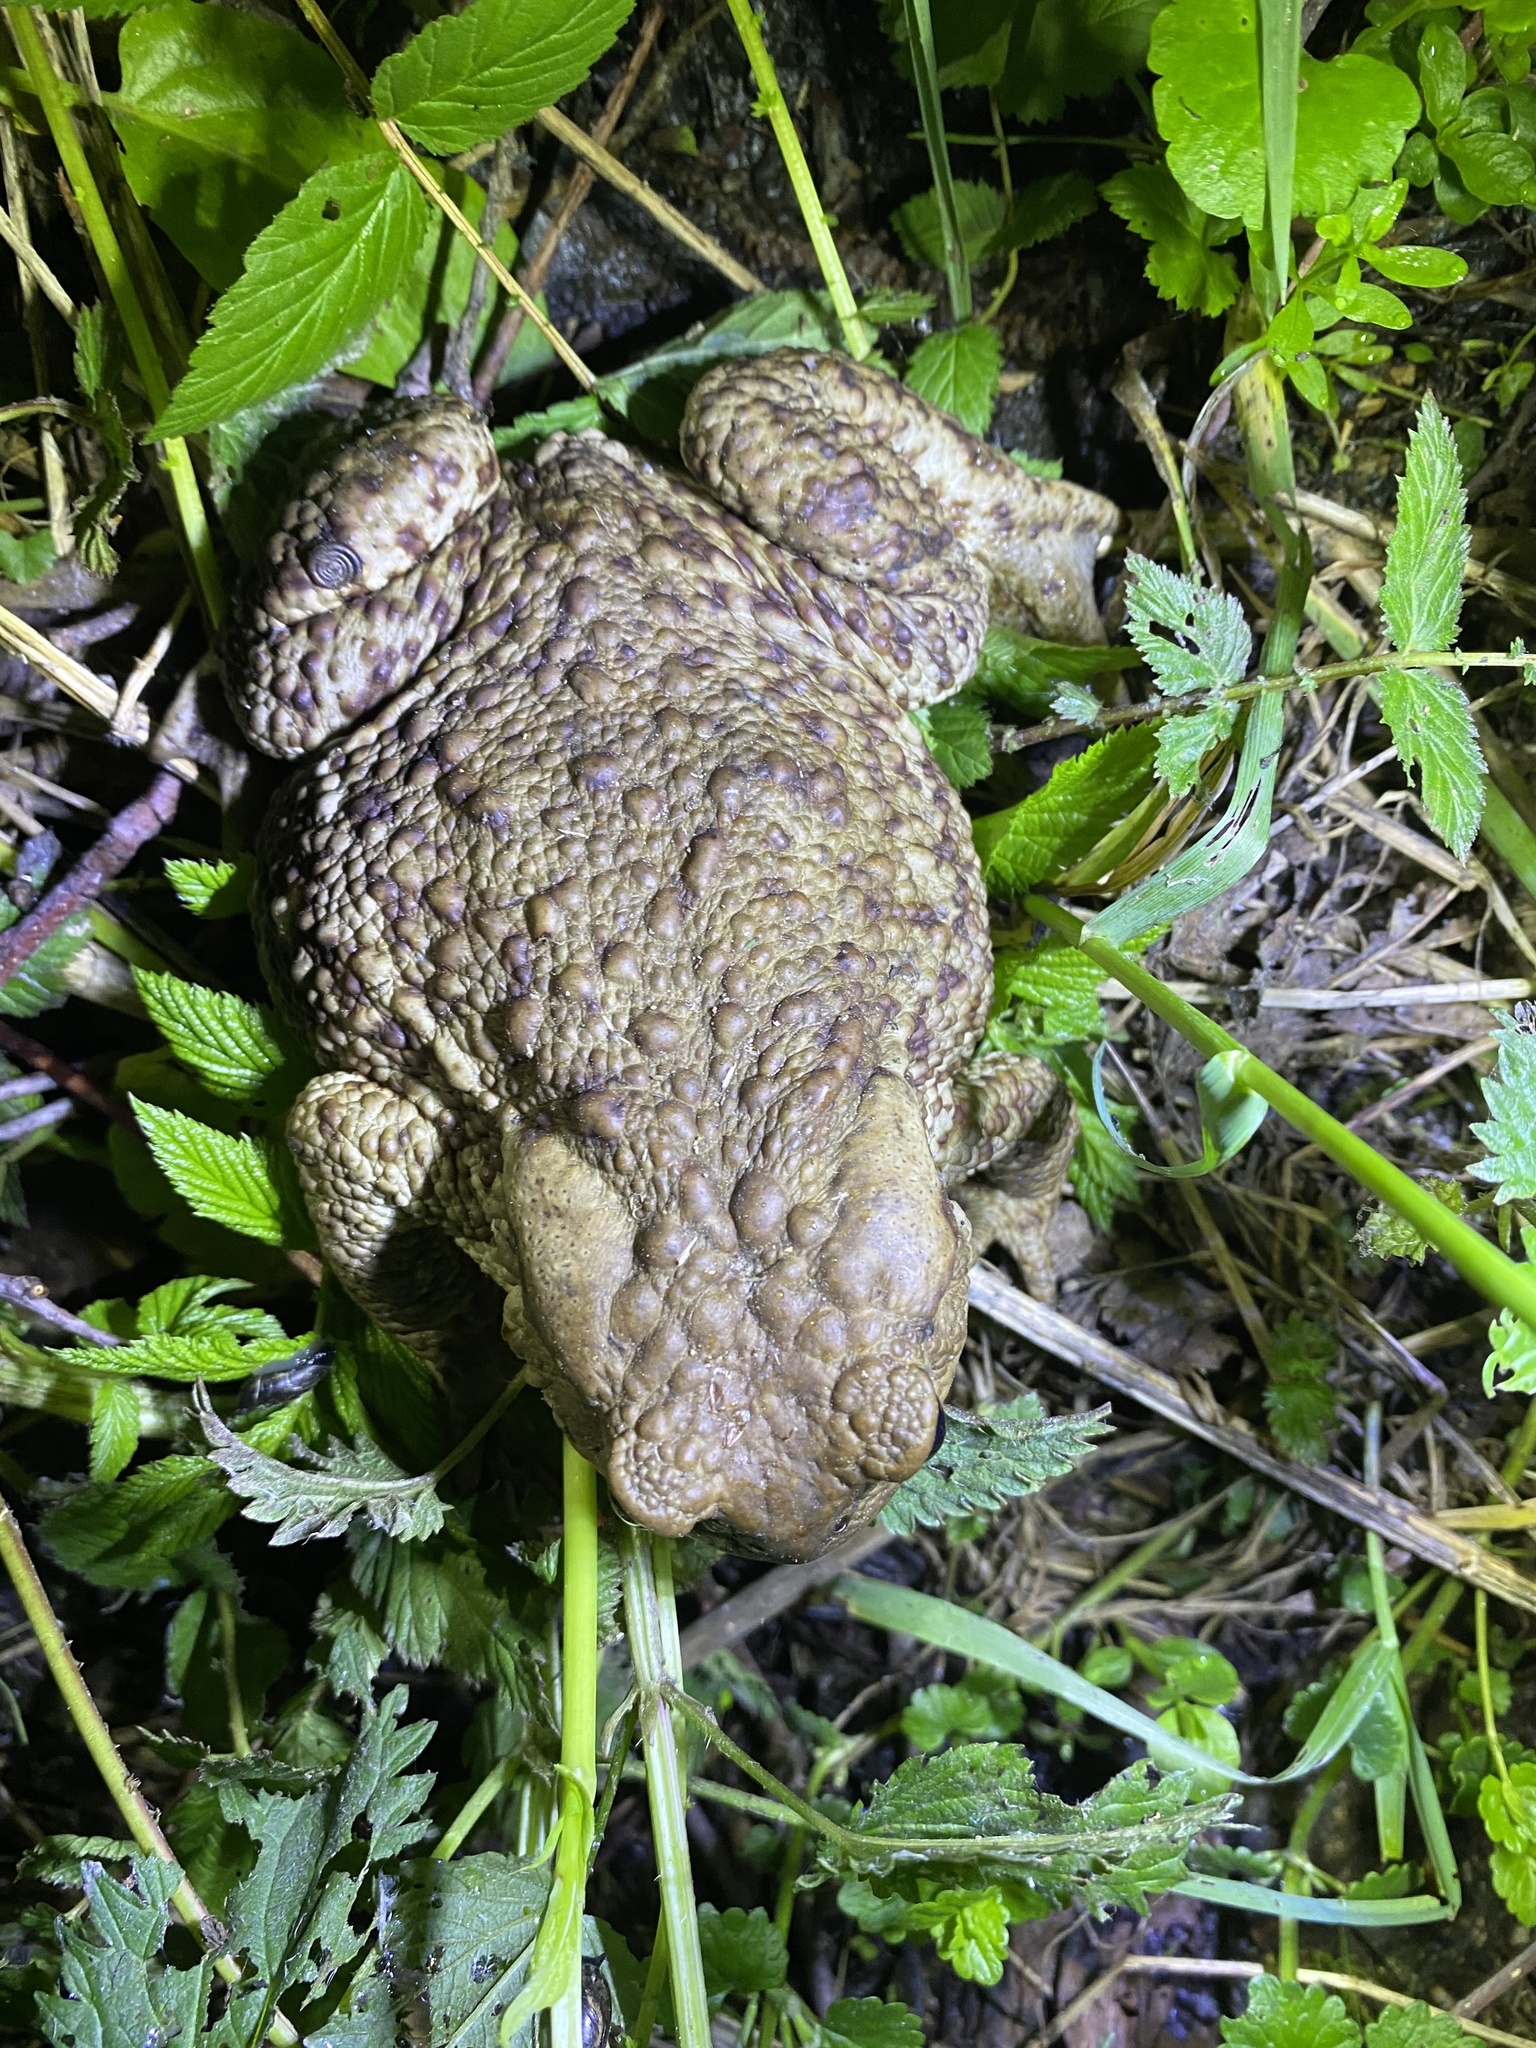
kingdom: Animalia
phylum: Chordata
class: Amphibia
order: Anura
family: Bufonidae
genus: Bufo
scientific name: Bufo bufo
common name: Common toad
